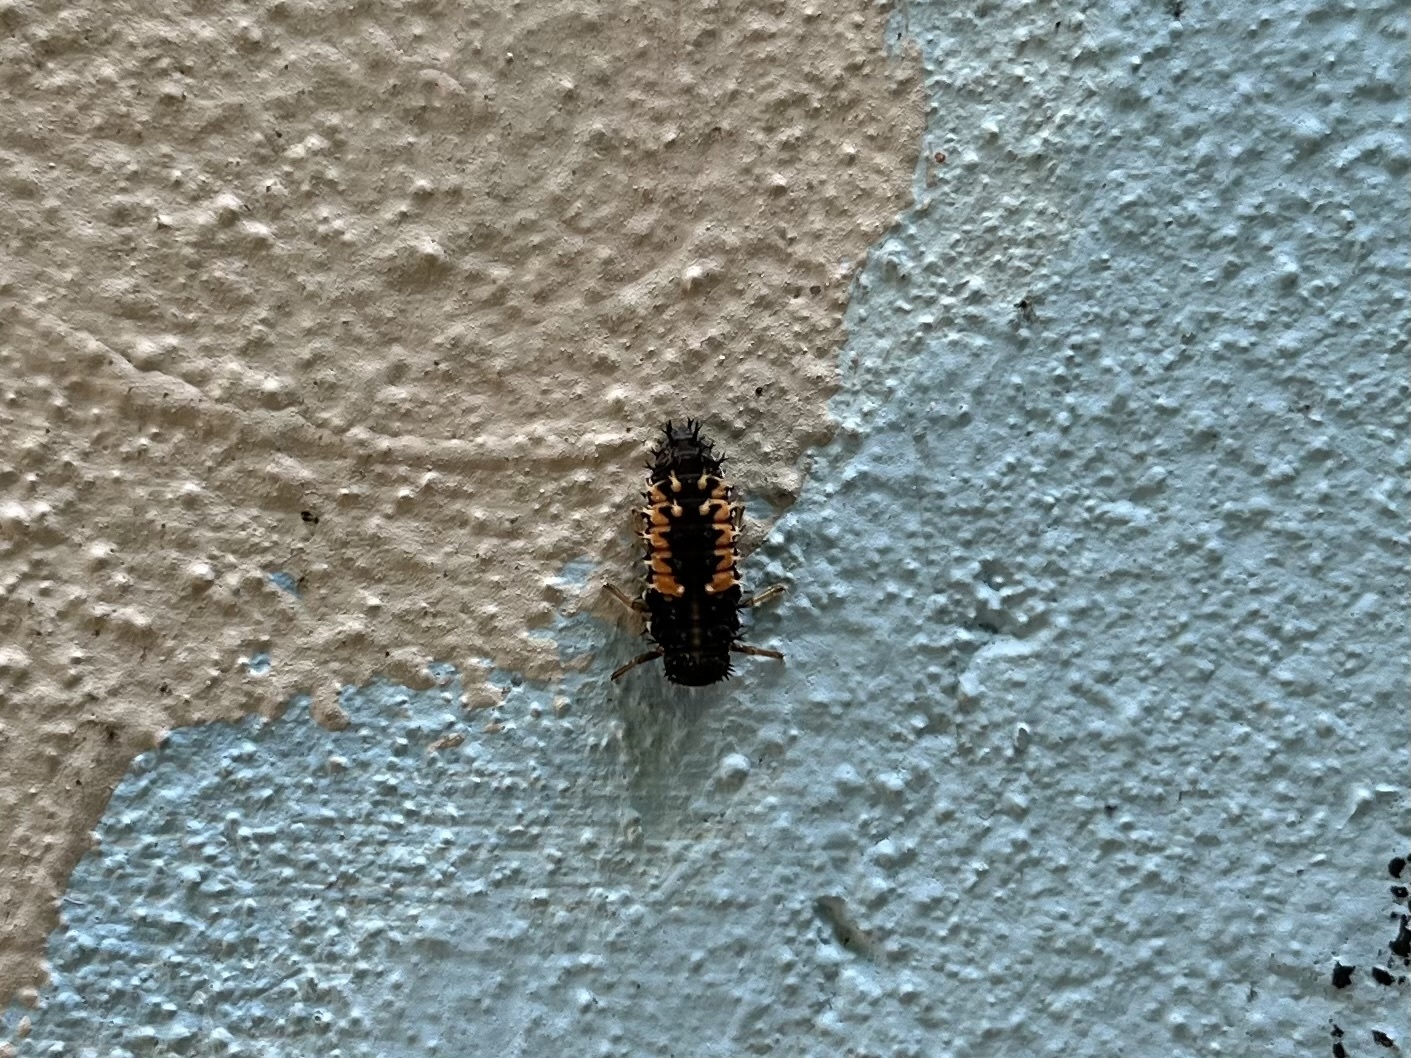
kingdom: Animalia
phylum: Arthropoda
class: Insecta
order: Coleoptera
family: Coccinellidae
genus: Harmonia
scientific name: Harmonia axyridis
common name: Harlequin ladybird
